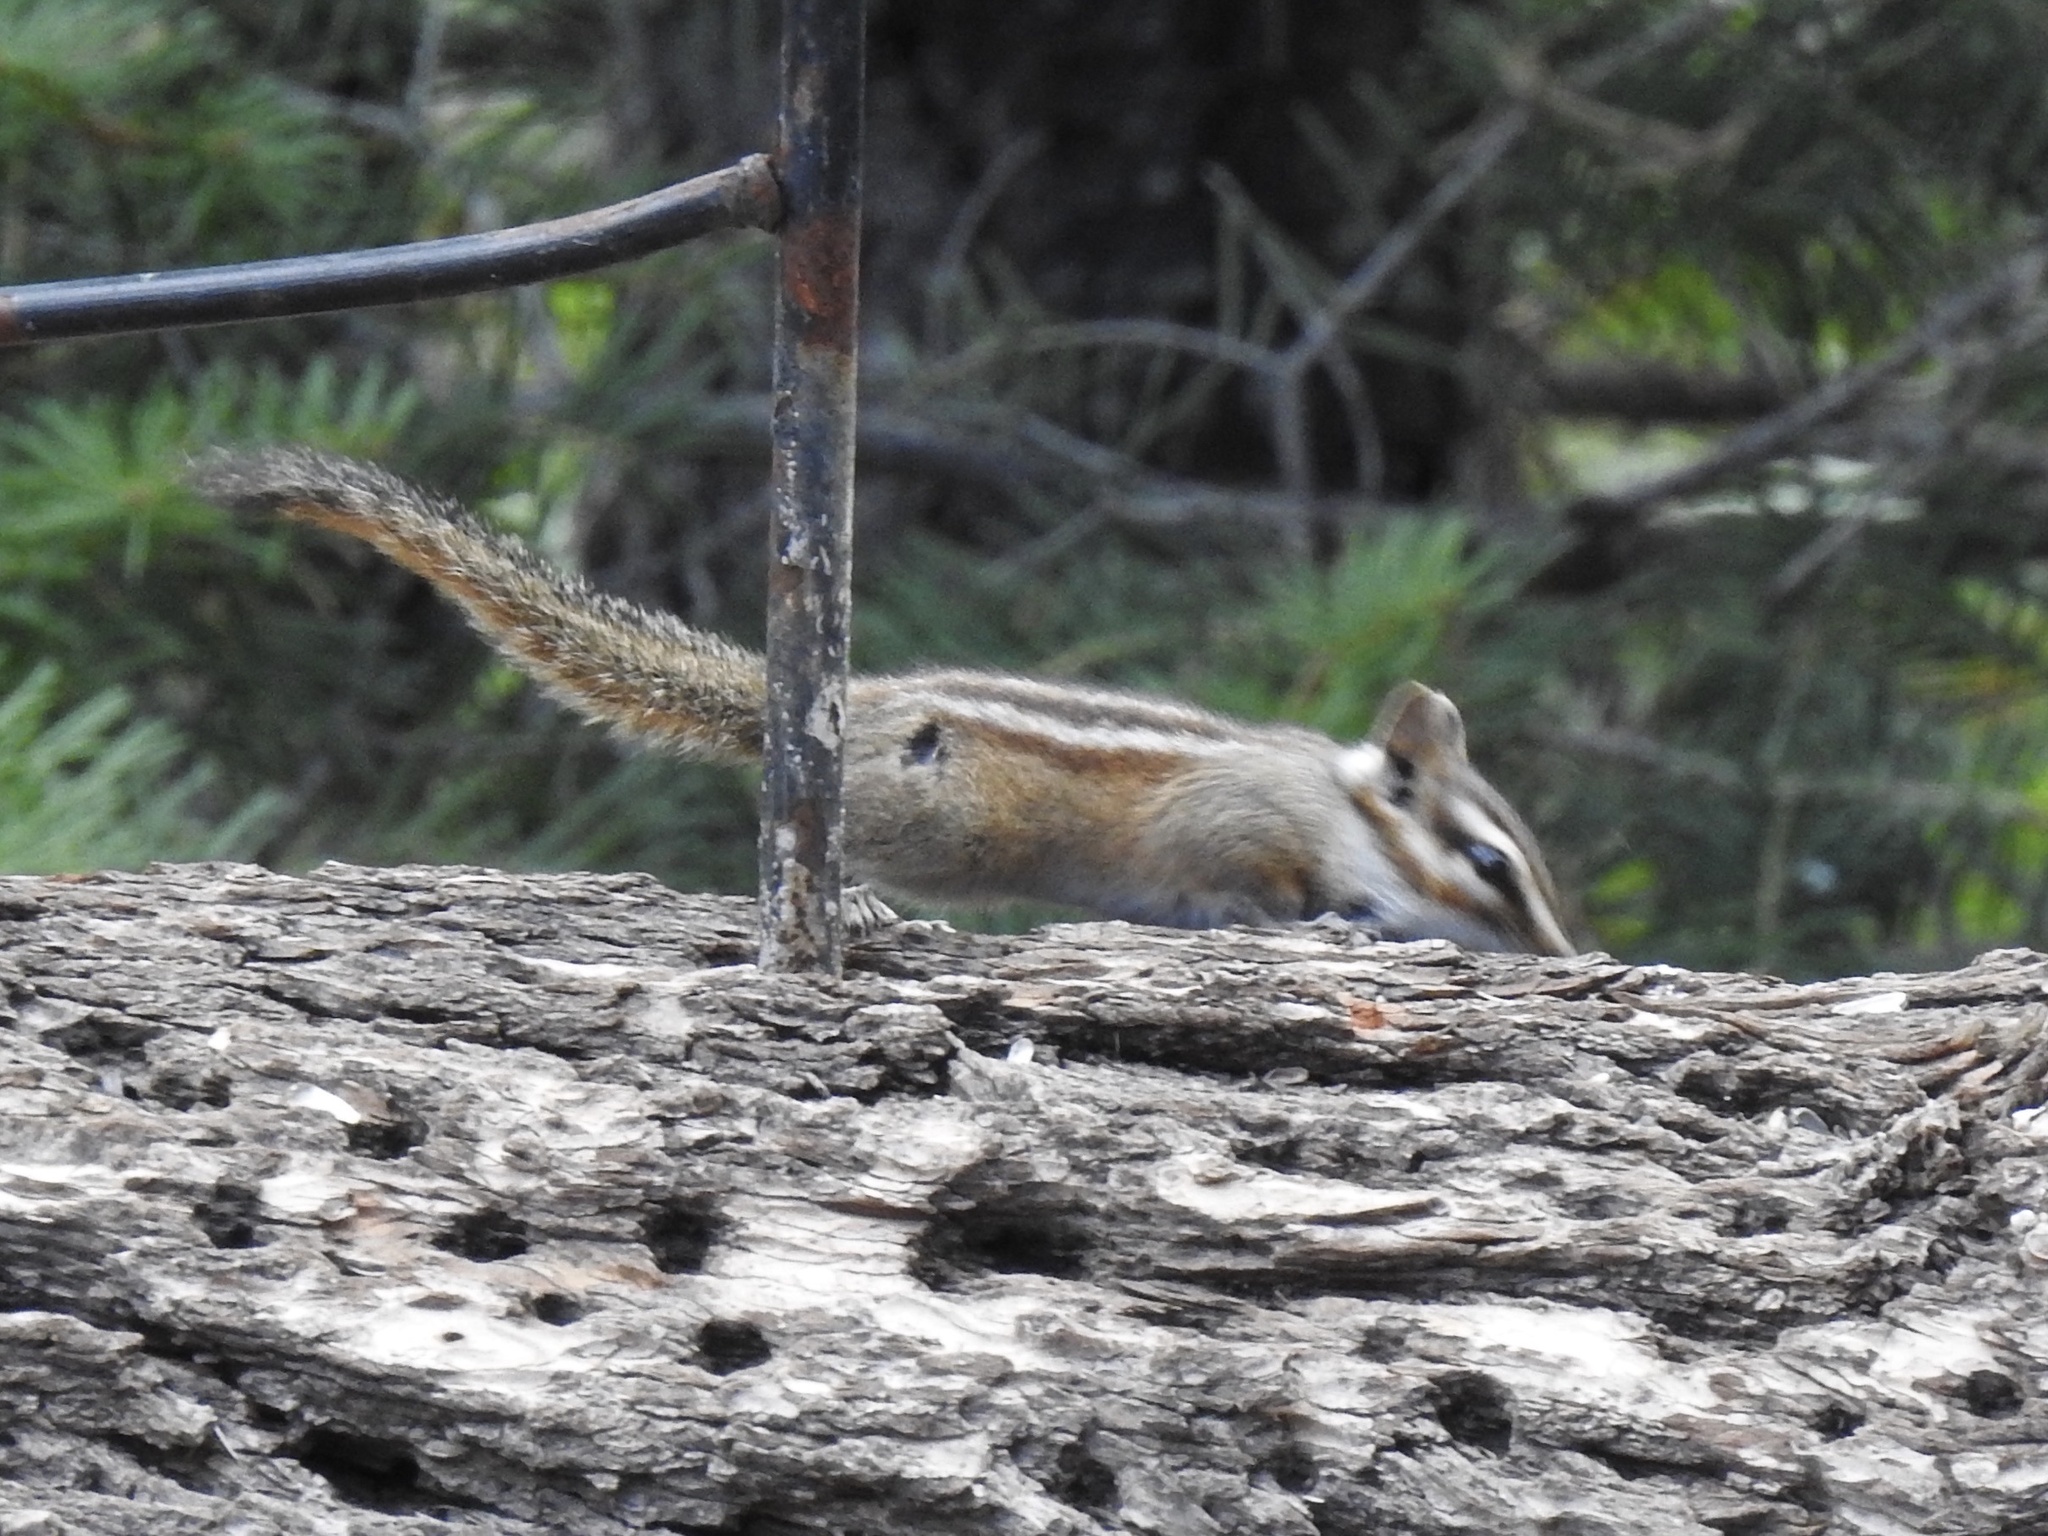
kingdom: Animalia
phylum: Chordata
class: Mammalia
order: Rodentia
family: Sciuridae
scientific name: Sciuridae
